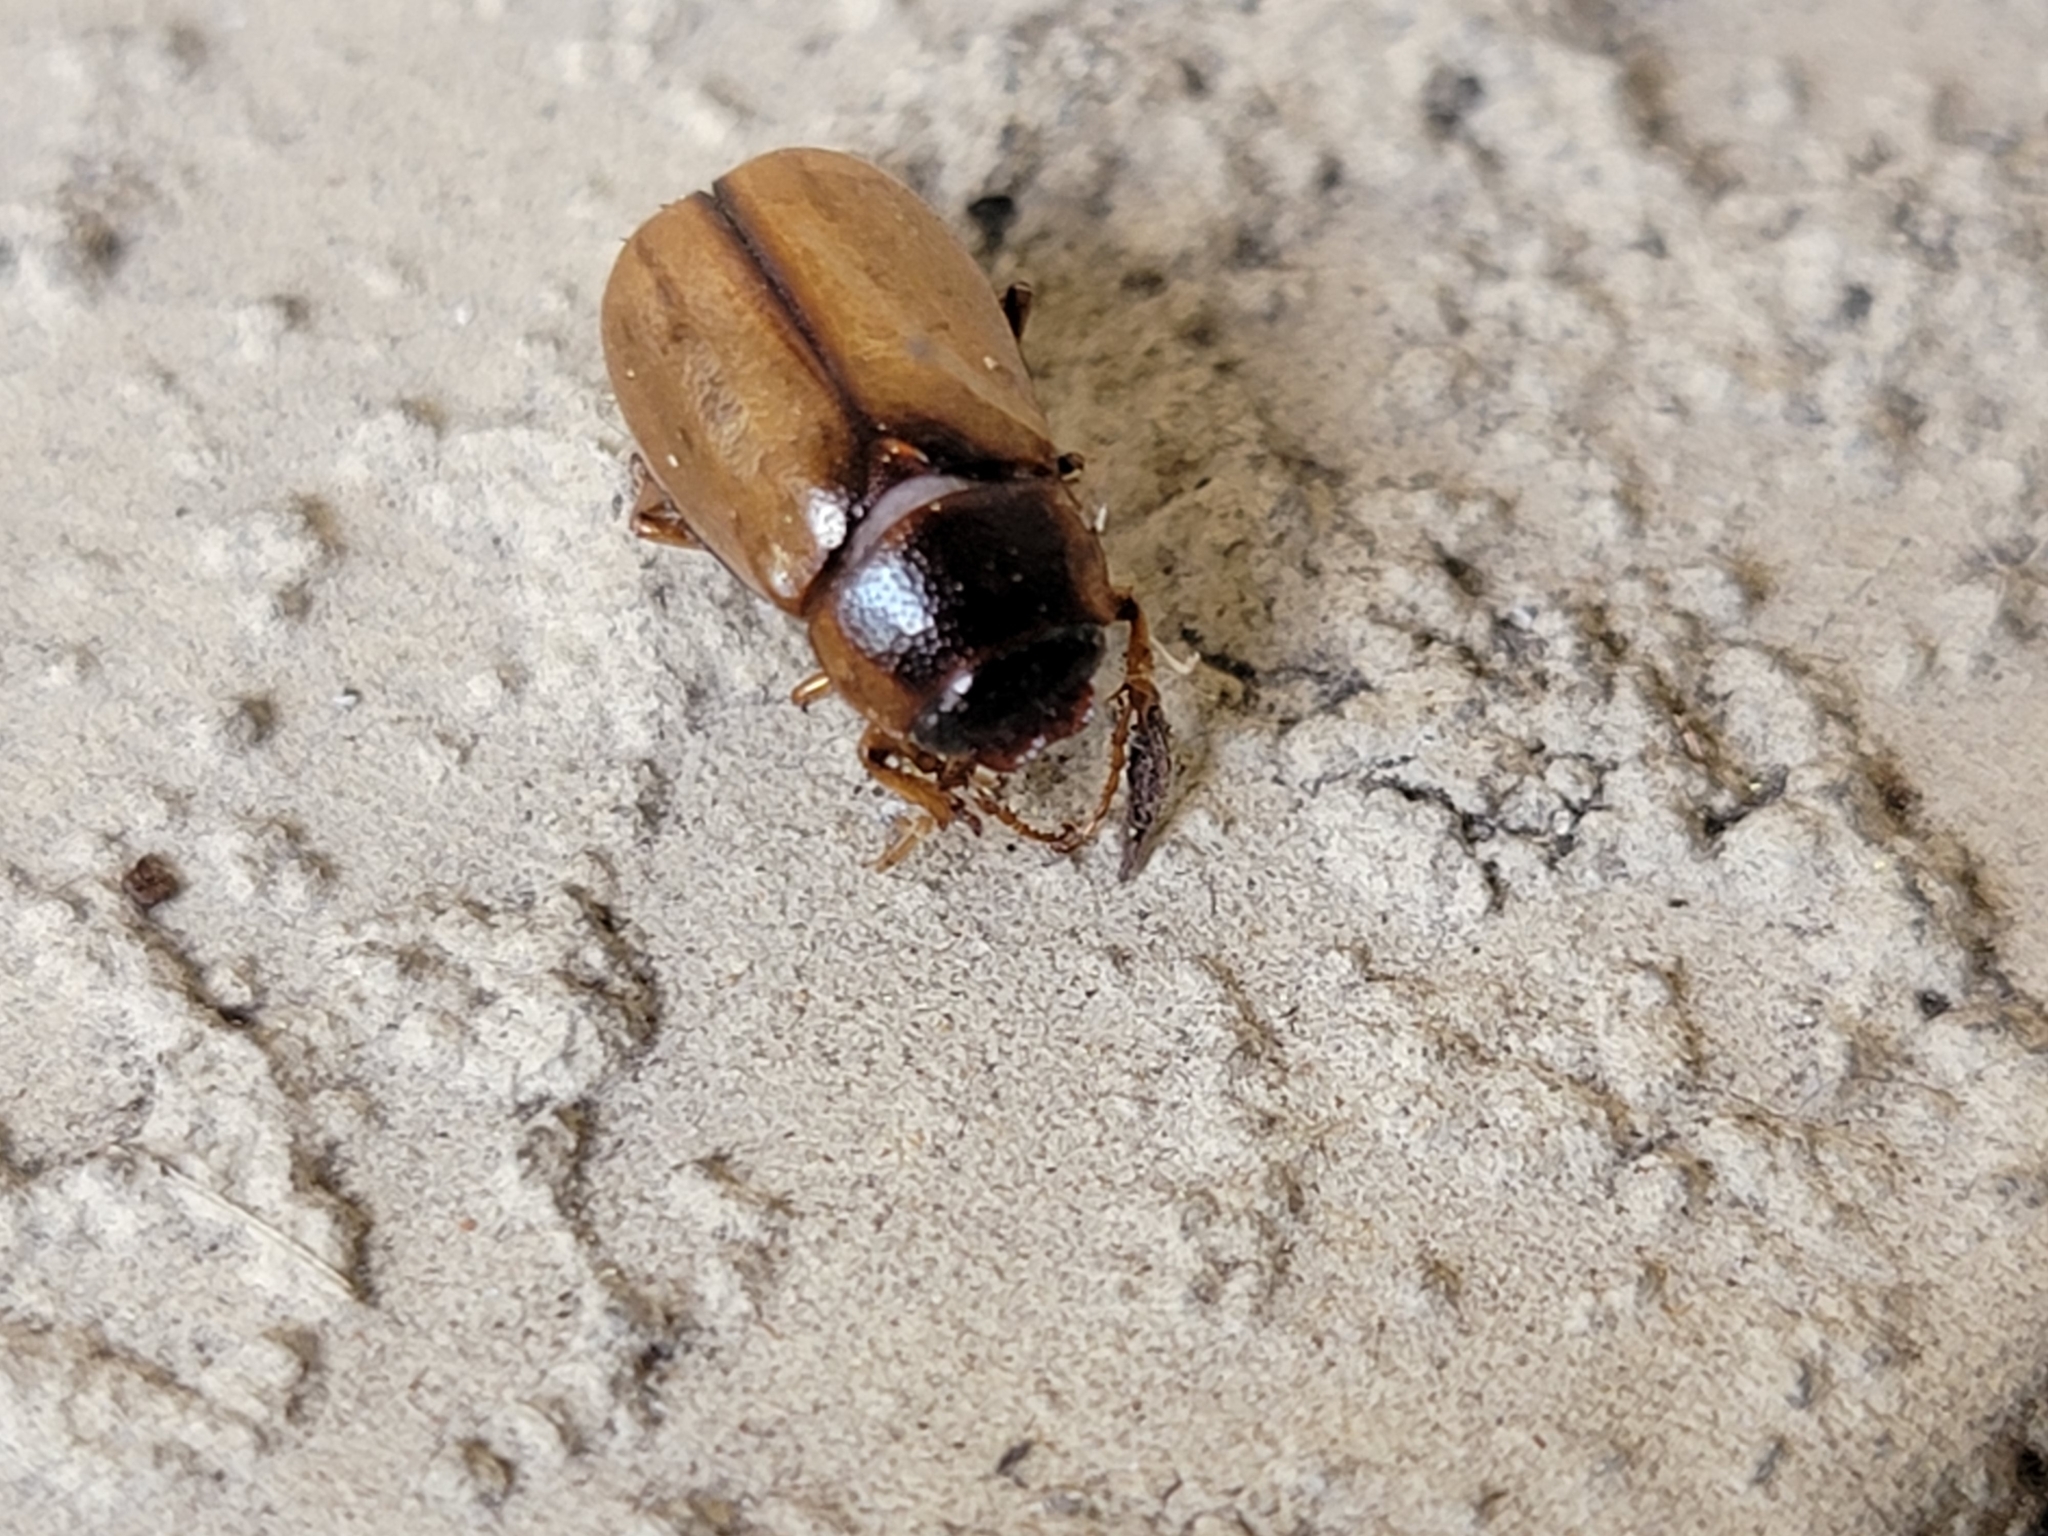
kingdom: Animalia
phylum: Arthropoda
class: Insecta
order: Coleoptera
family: Scarabaeidae
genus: Phyllophaga
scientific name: Phyllophaga bruneri
